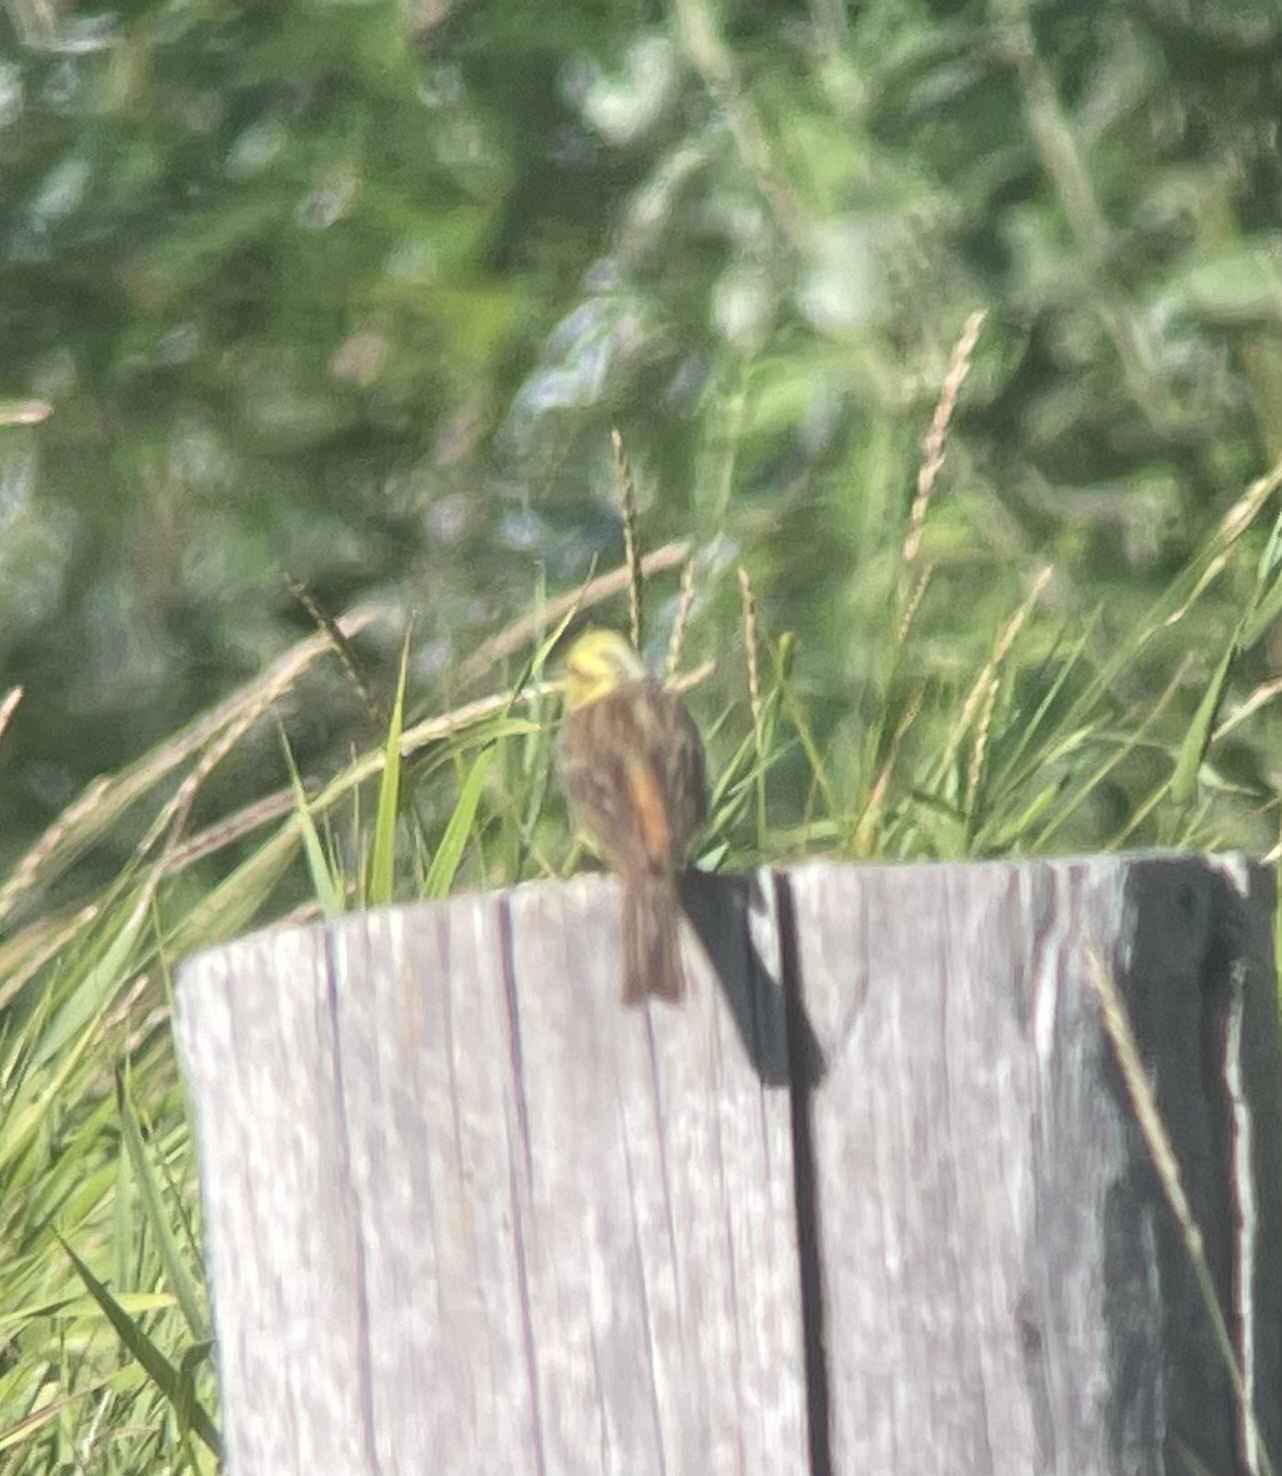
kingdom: Animalia
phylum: Chordata
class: Aves
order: Passeriformes
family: Emberizidae
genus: Emberiza
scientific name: Emberiza citrinella
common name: Yellowhammer
